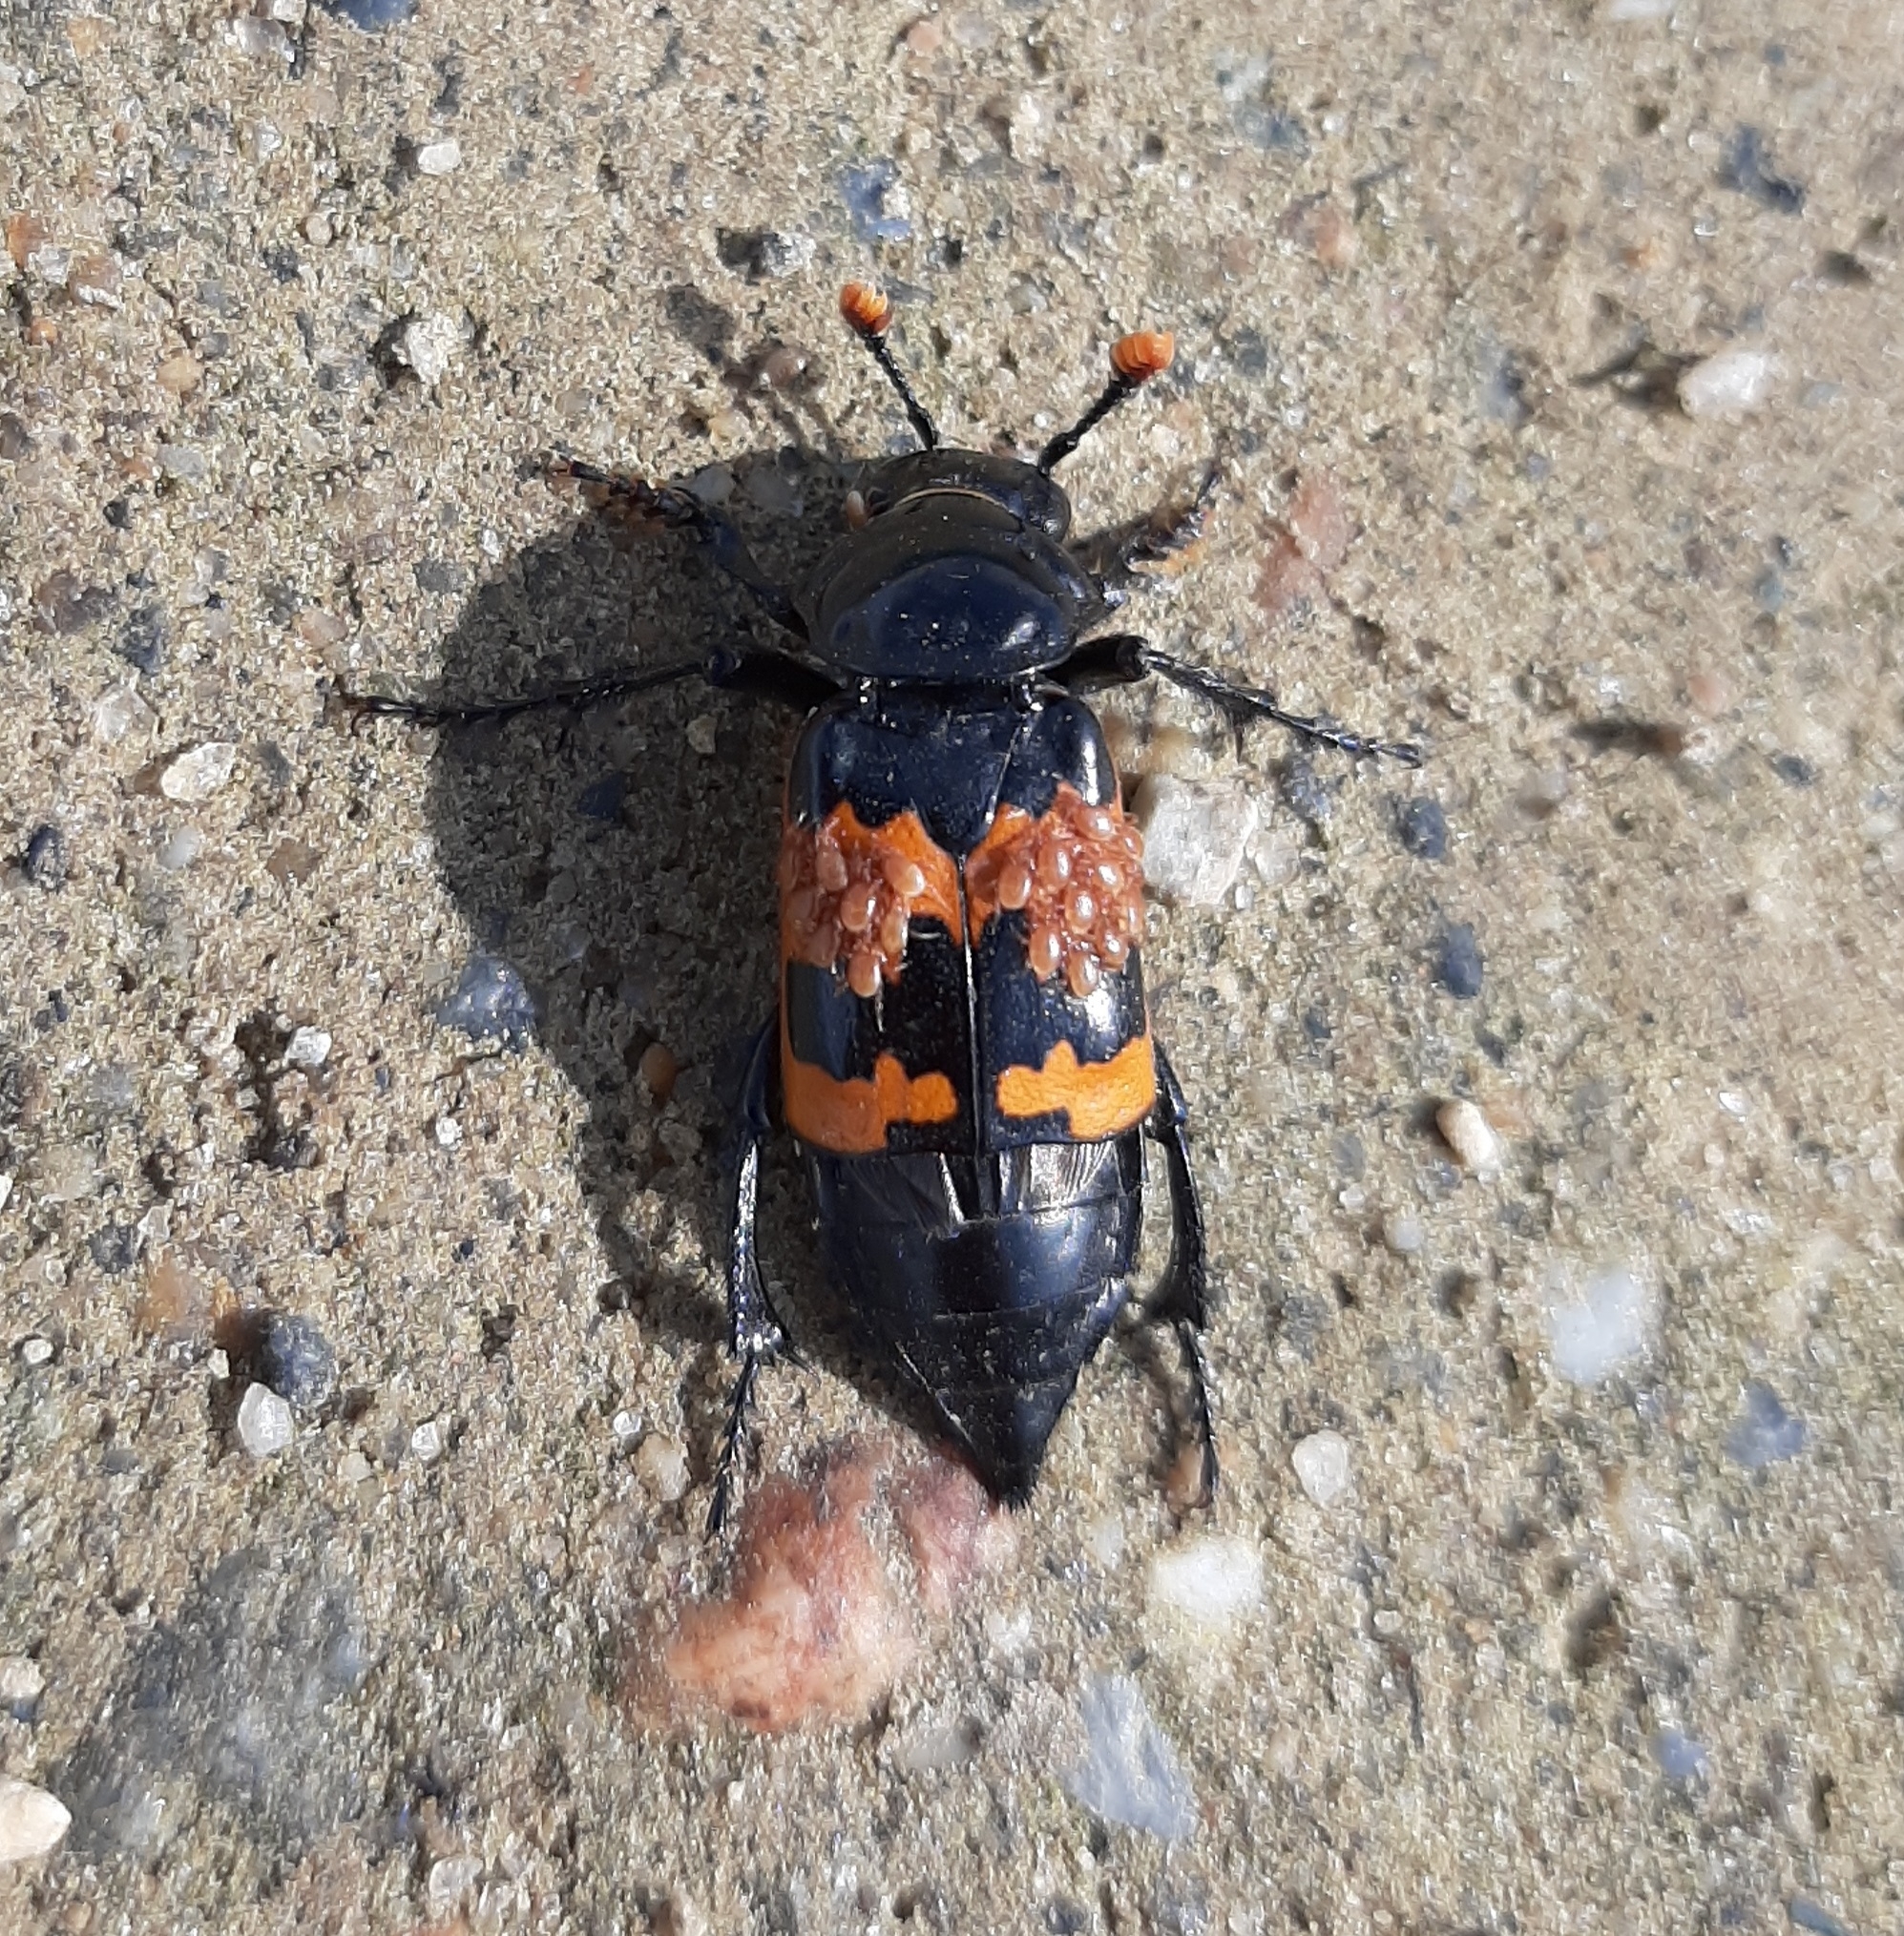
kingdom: Animalia
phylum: Arthropoda
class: Insecta
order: Coleoptera
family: Staphylinidae
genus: Nicrophorus
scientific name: Nicrophorus marginatus
